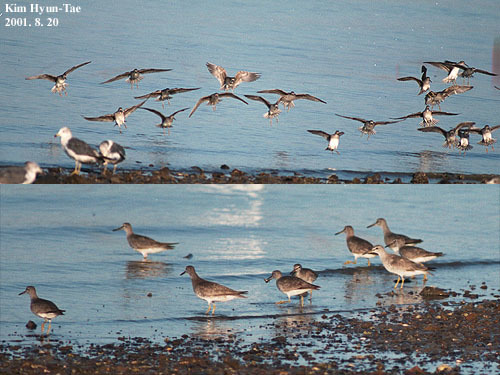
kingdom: Animalia
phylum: Chordata
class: Aves
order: Charadriiformes
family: Scolopacidae
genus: Tringa
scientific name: Tringa brevipes
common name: Grey-tailed tattler
